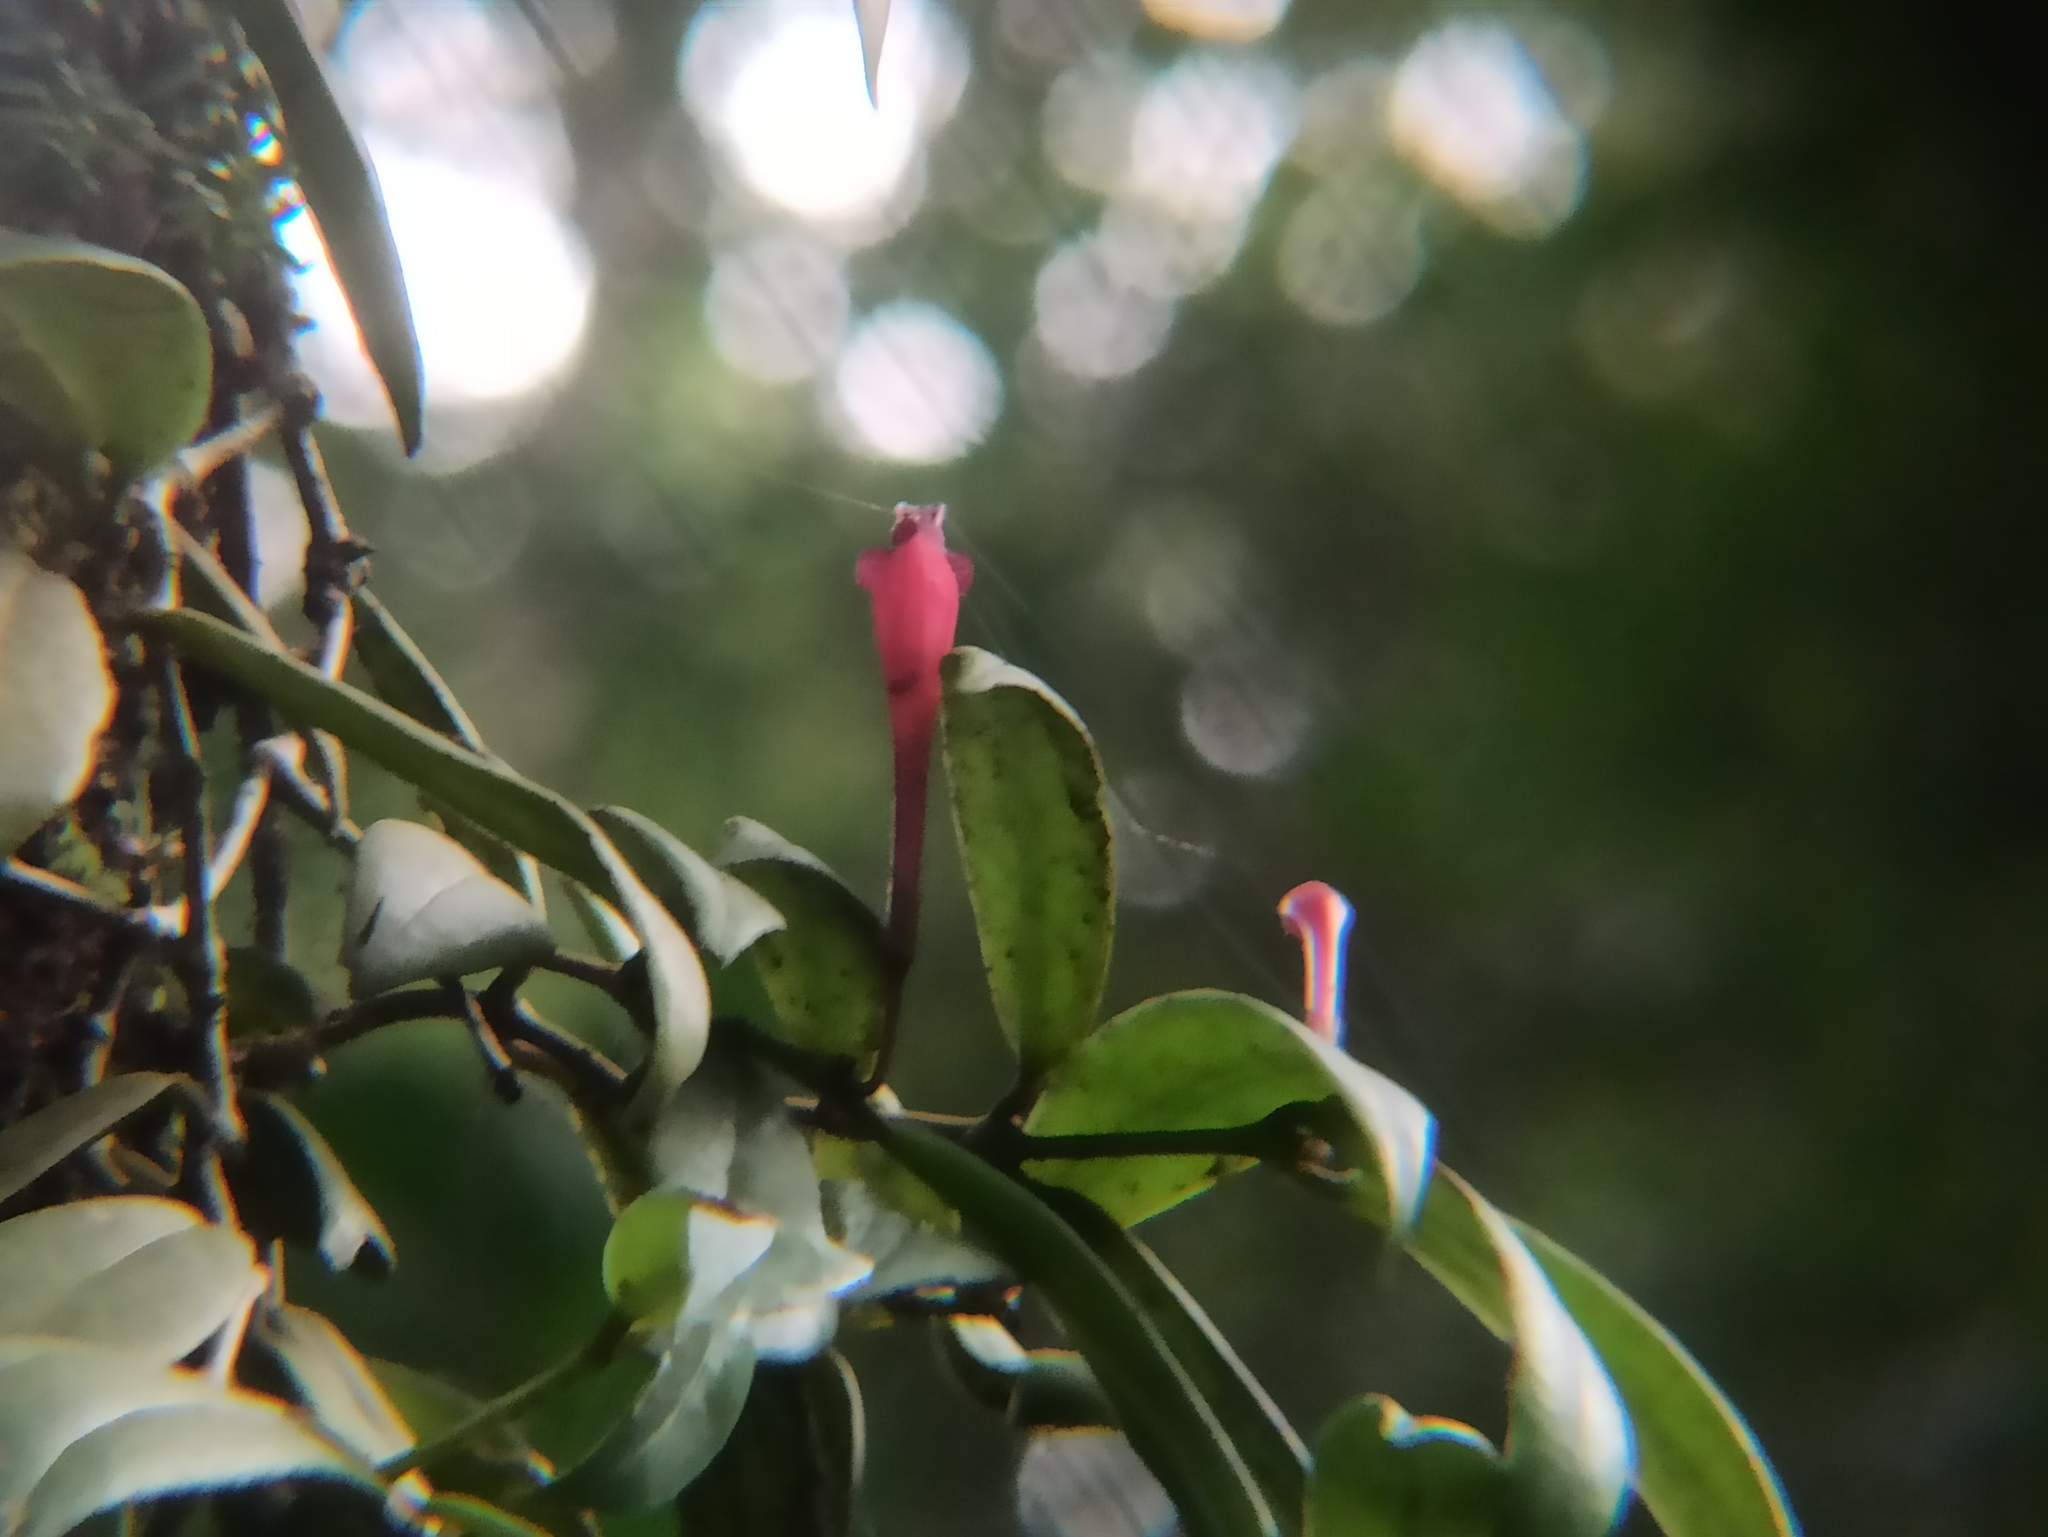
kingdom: Plantae
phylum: Tracheophyta
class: Magnoliopsida
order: Lamiales
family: Gesneriaceae
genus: Aeschynanthus
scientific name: Aeschynanthus perrottetii
